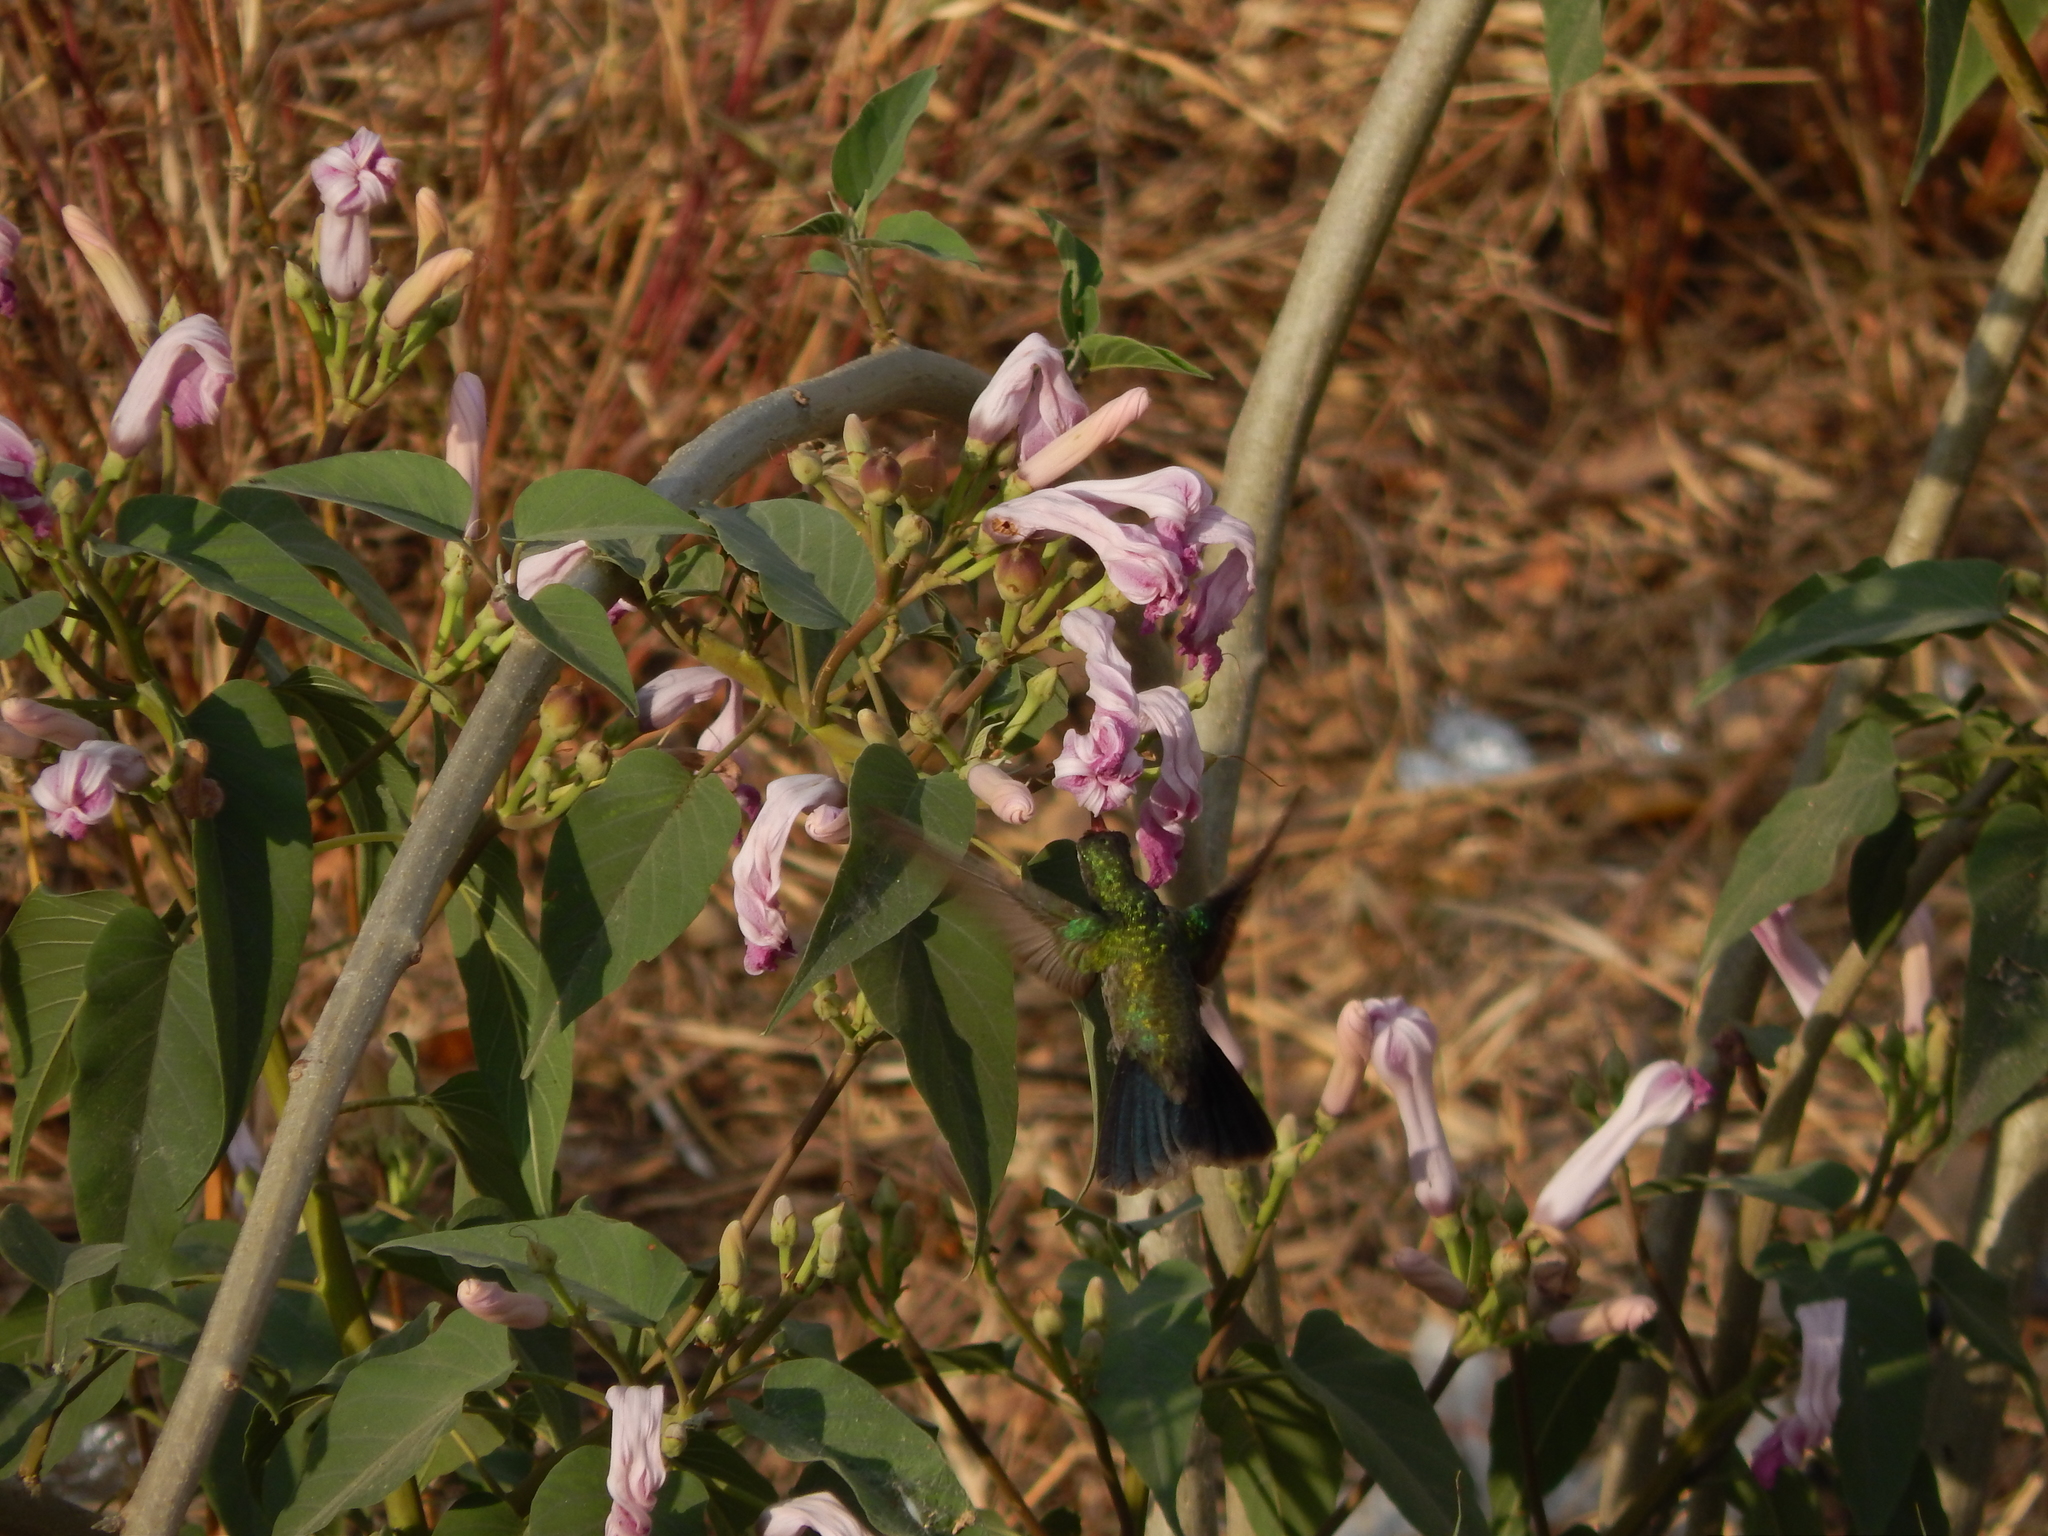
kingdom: Animalia
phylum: Chordata
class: Aves
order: Apodiformes
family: Trochilidae
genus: Cynanthus
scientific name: Cynanthus latirostris
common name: Broad-billed hummingbird
